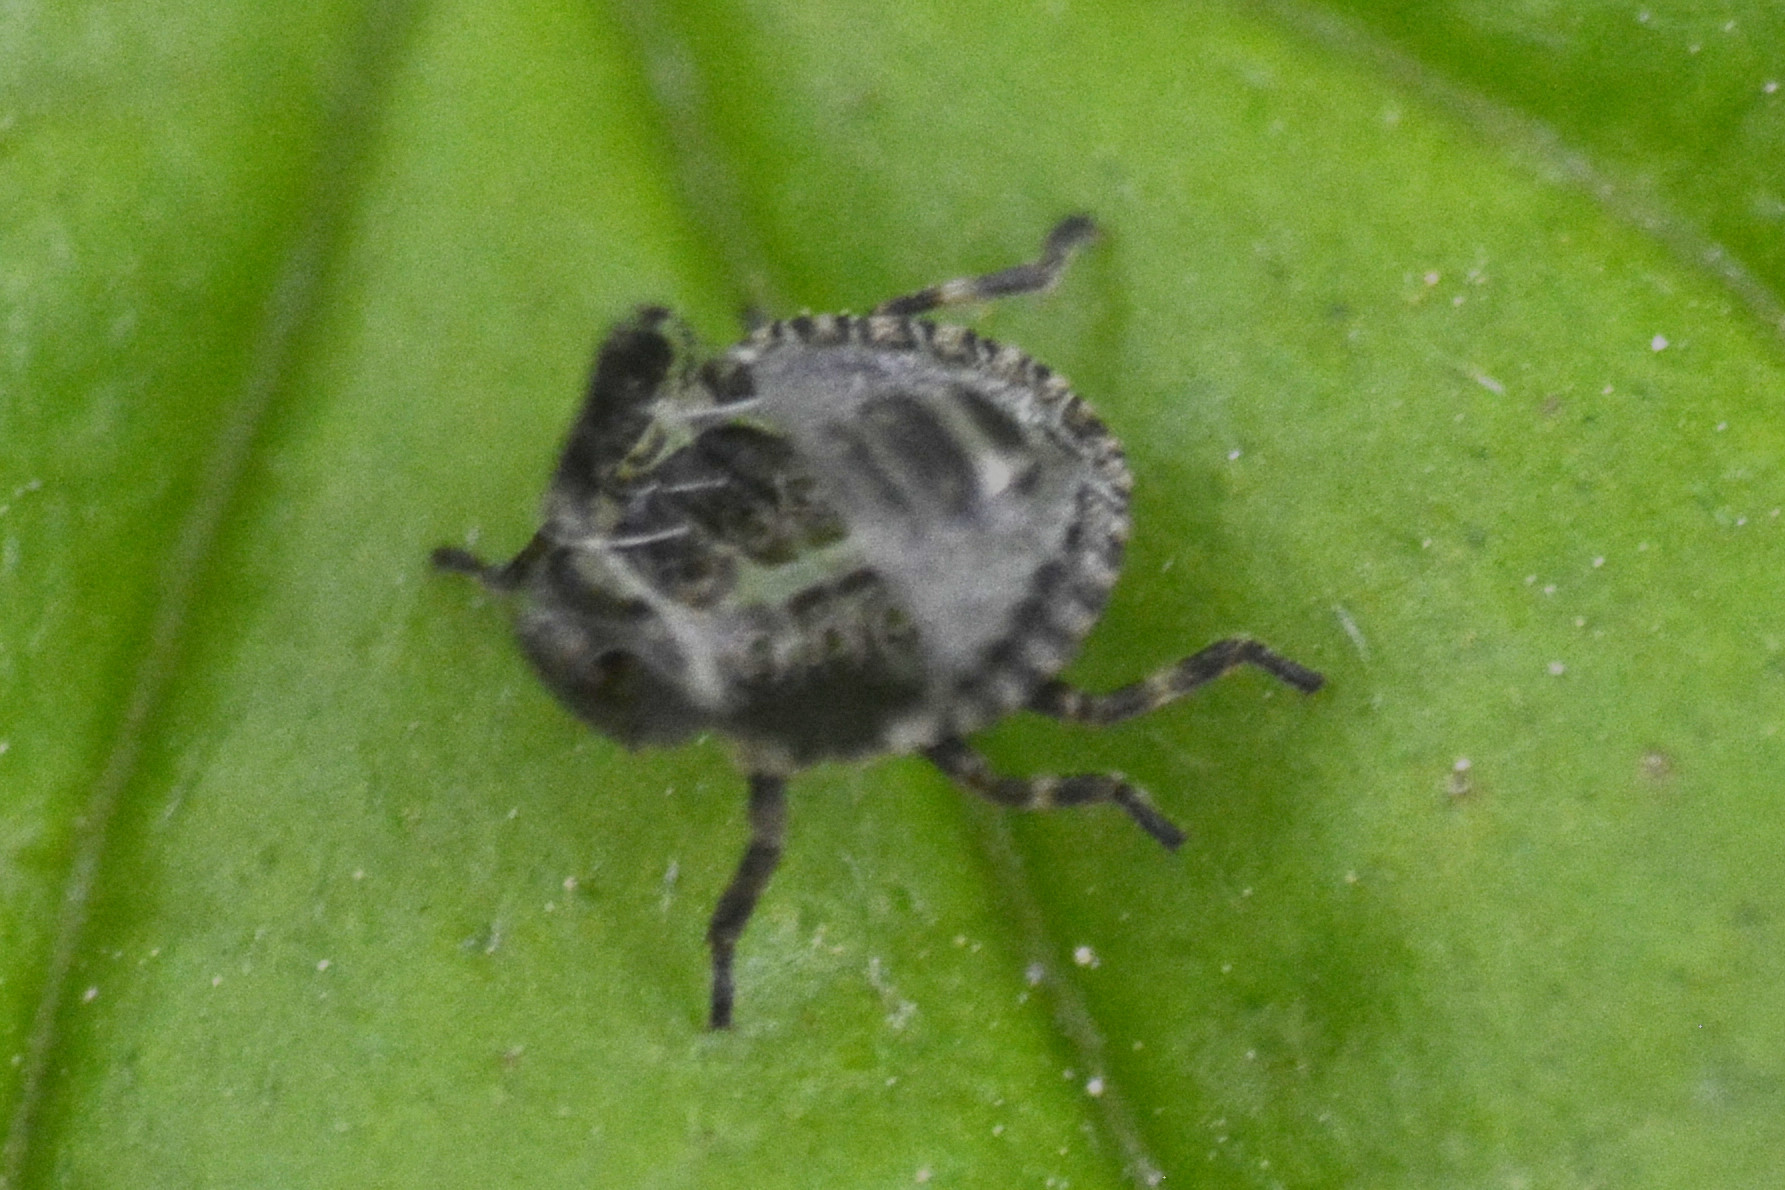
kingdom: Animalia
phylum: Arthropoda
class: Insecta
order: Hemiptera
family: Pentatomidae
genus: Pentatoma
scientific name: Pentatoma rufipes
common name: Forest bug
